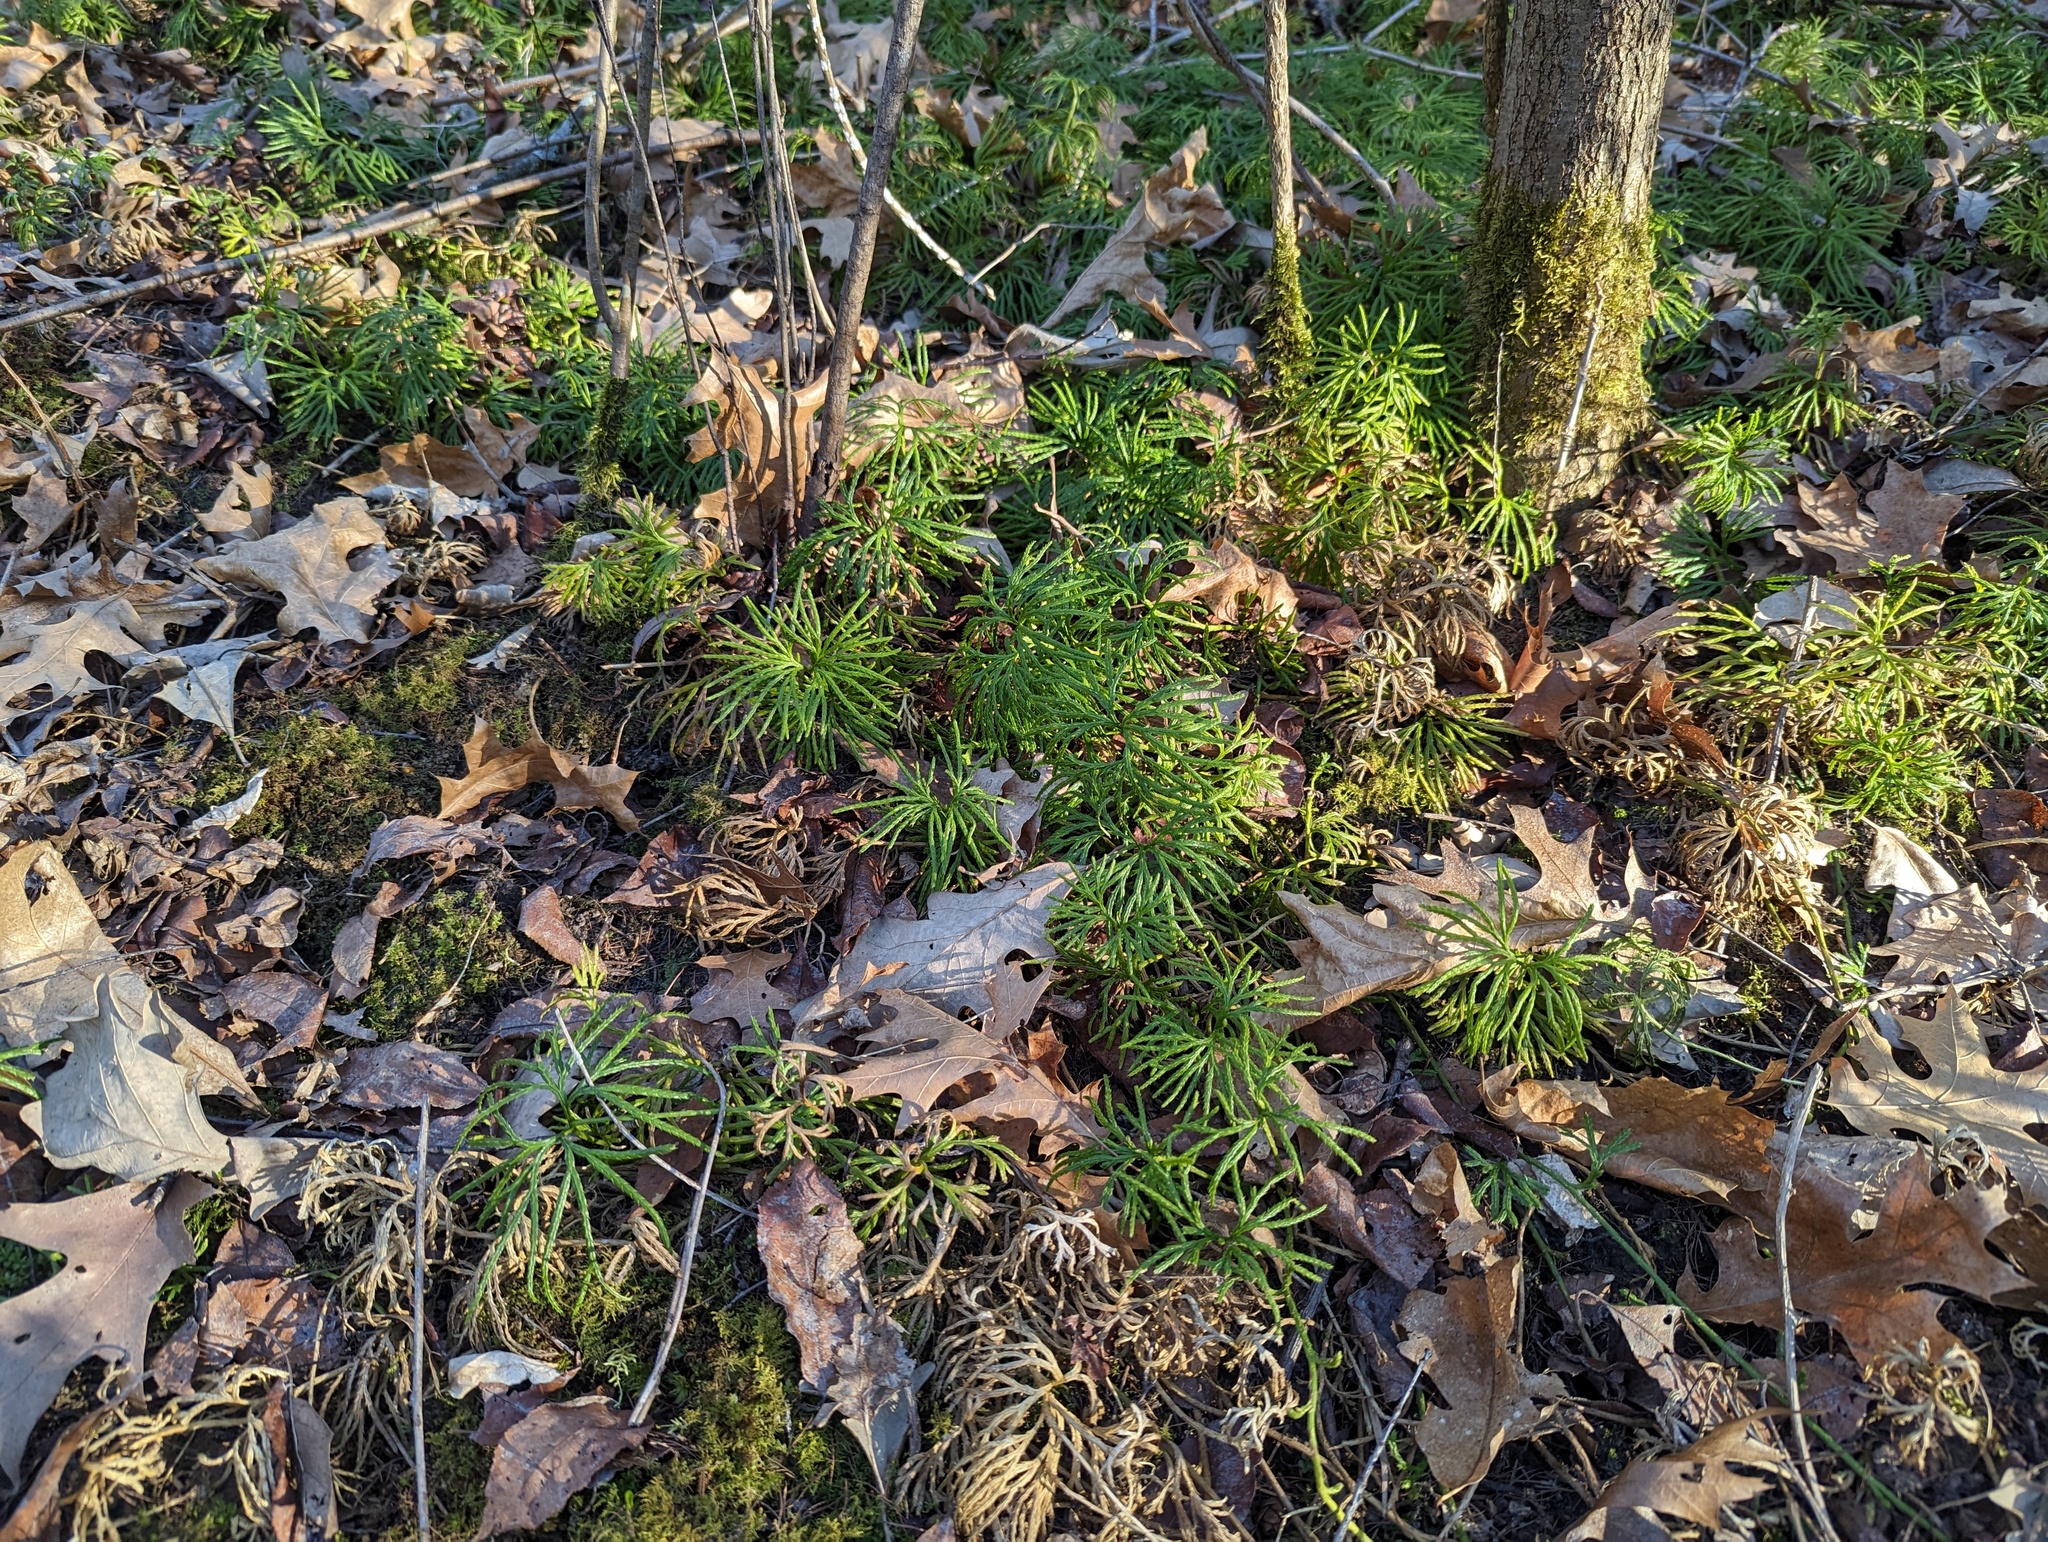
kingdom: Plantae
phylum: Tracheophyta
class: Lycopodiopsida
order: Lycopodiales
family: Lycopodiaceae
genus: Diphasiastrum
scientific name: Diphasiastrum digitatum
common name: Southern running-pine
